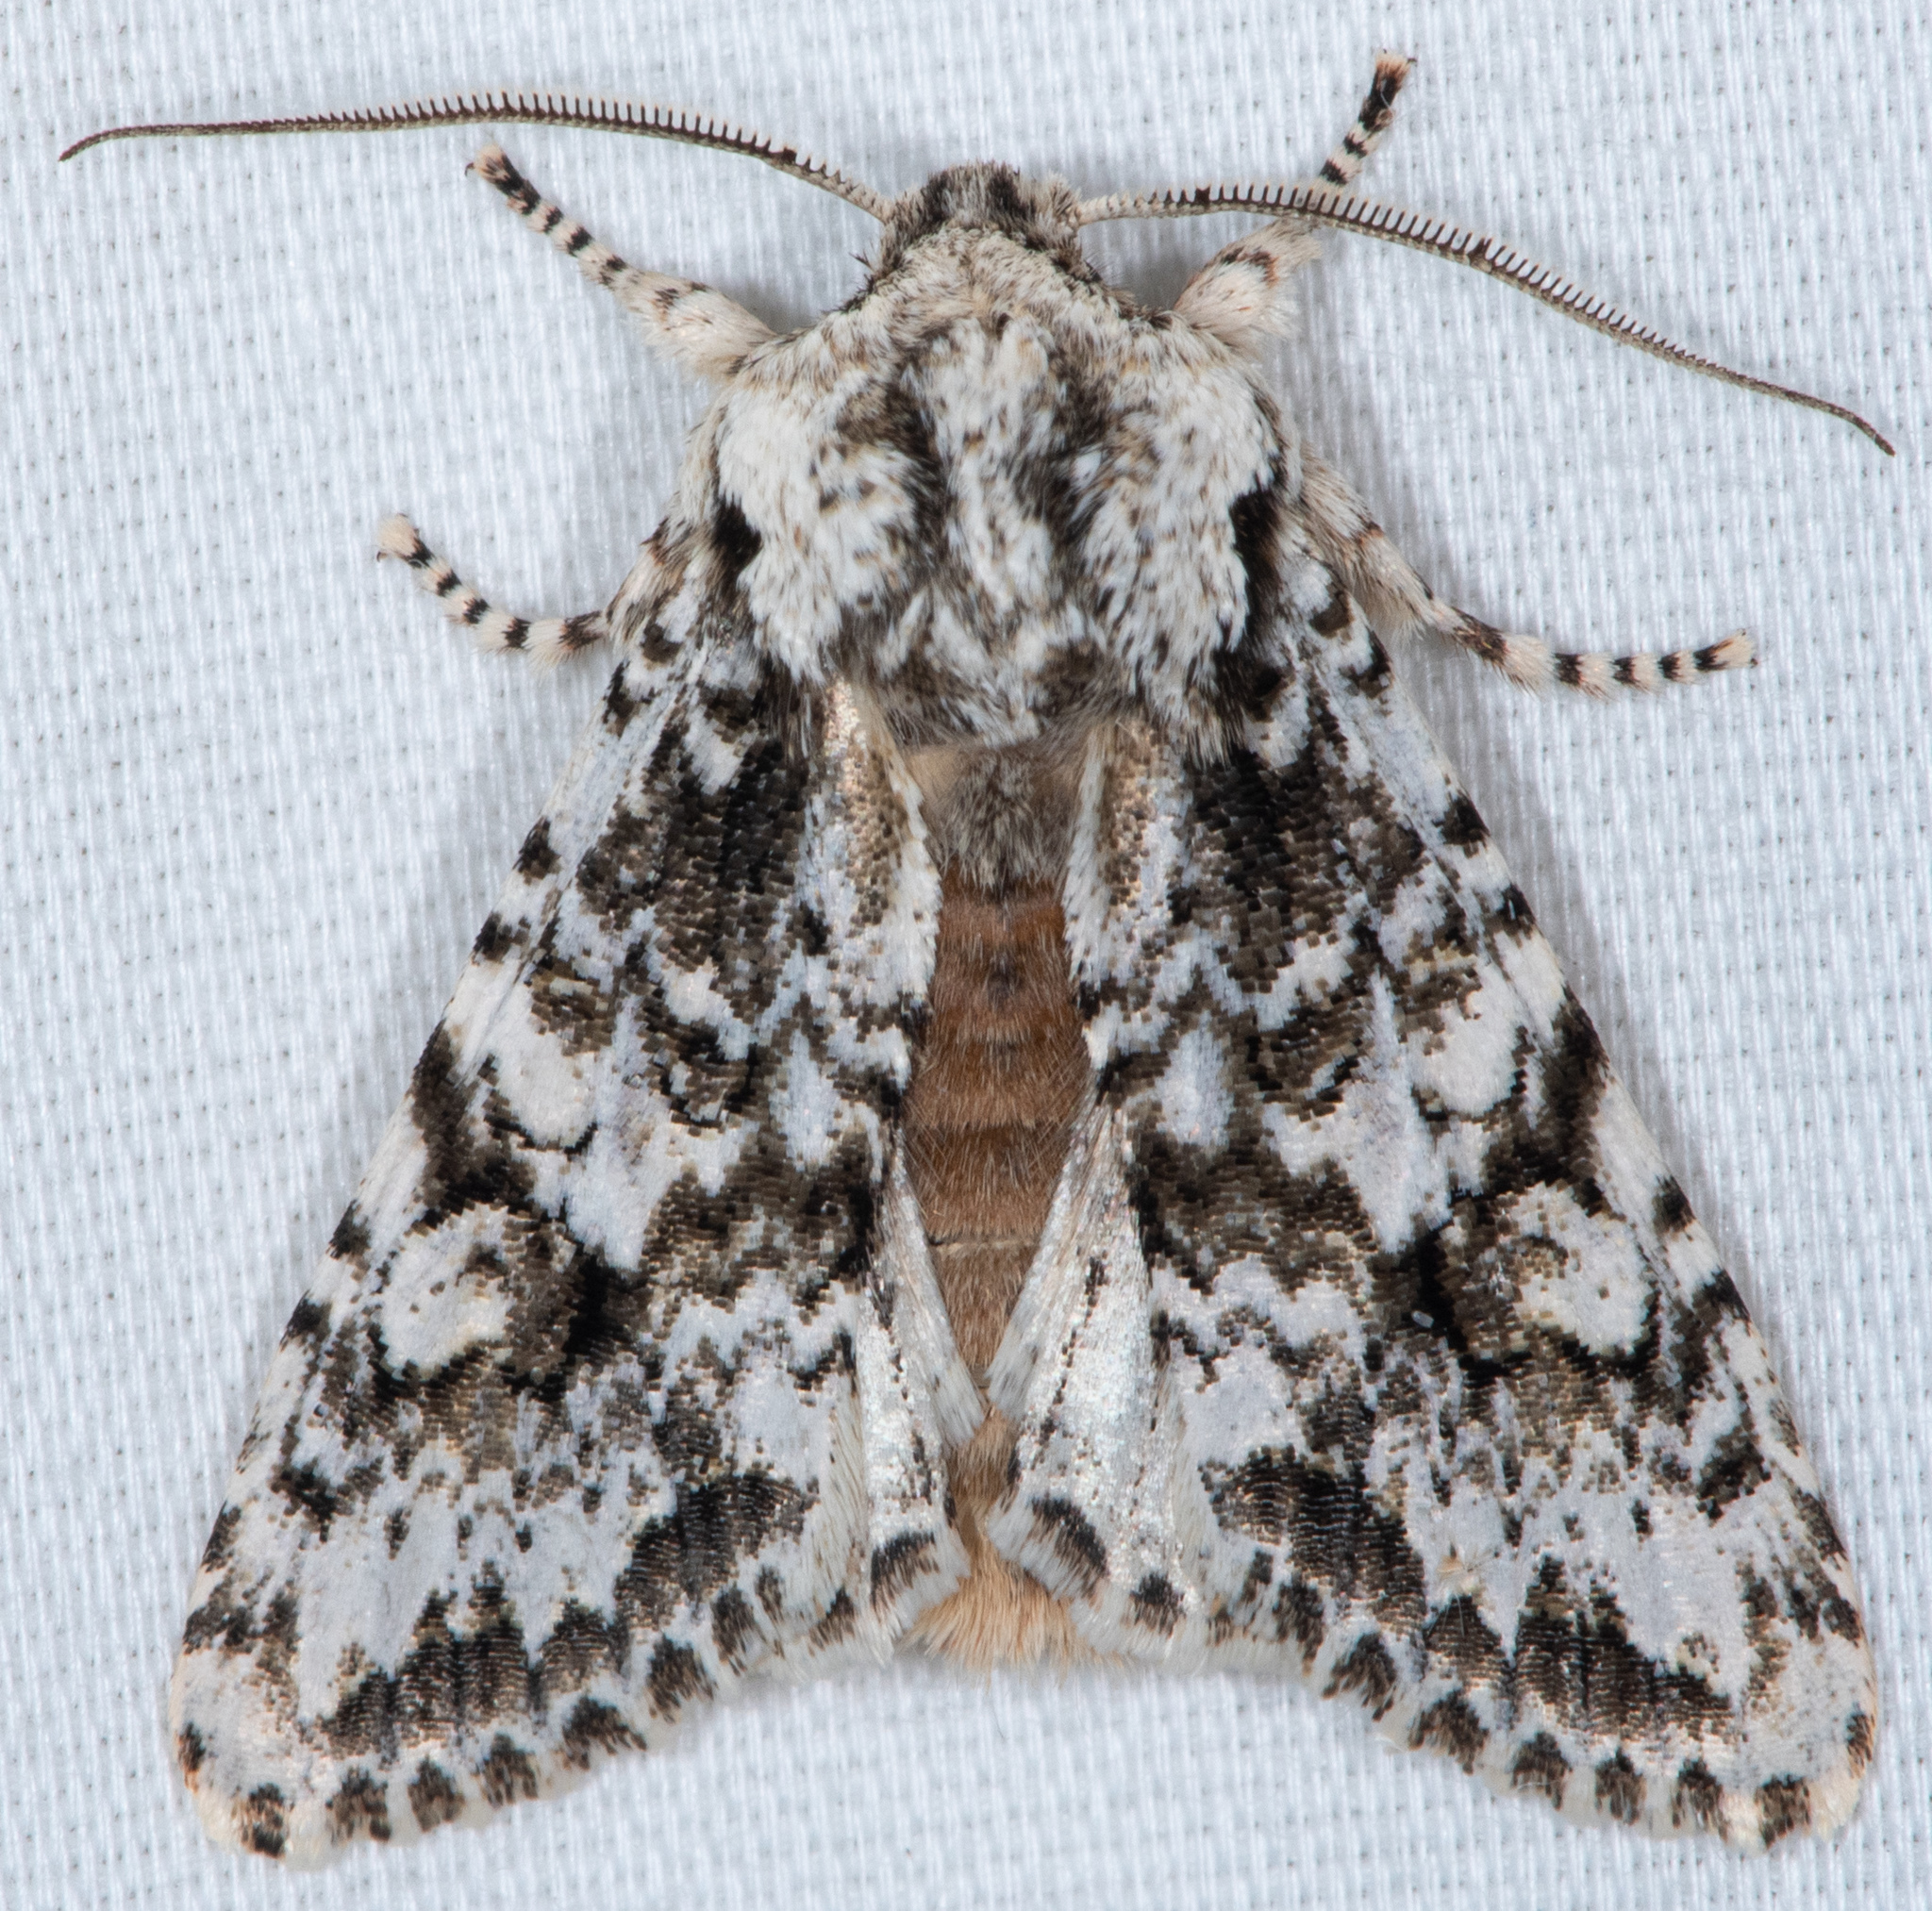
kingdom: Animalia
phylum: Arthropoda
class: Insecta
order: Lepidoptera
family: Noctuidae
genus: Egira
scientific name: Egira februalis
